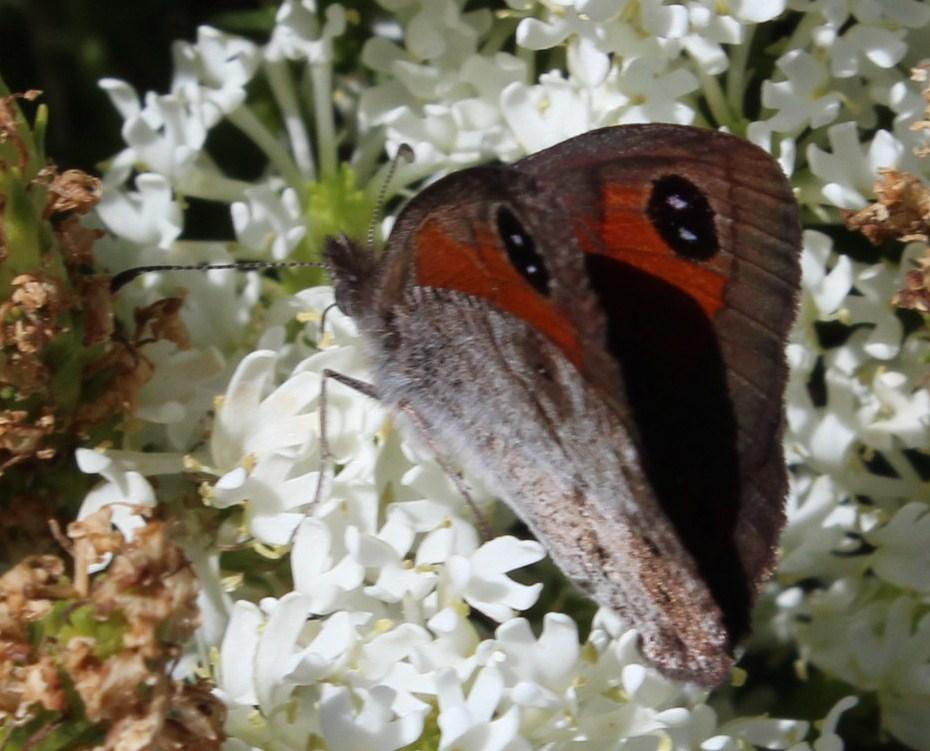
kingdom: Animalia
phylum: Arthropoda
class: Insecta
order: Lepidoptera
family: Nymphalidae
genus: Pseudonympha
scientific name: Pseudonympha magus
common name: Silver-bottom brown
